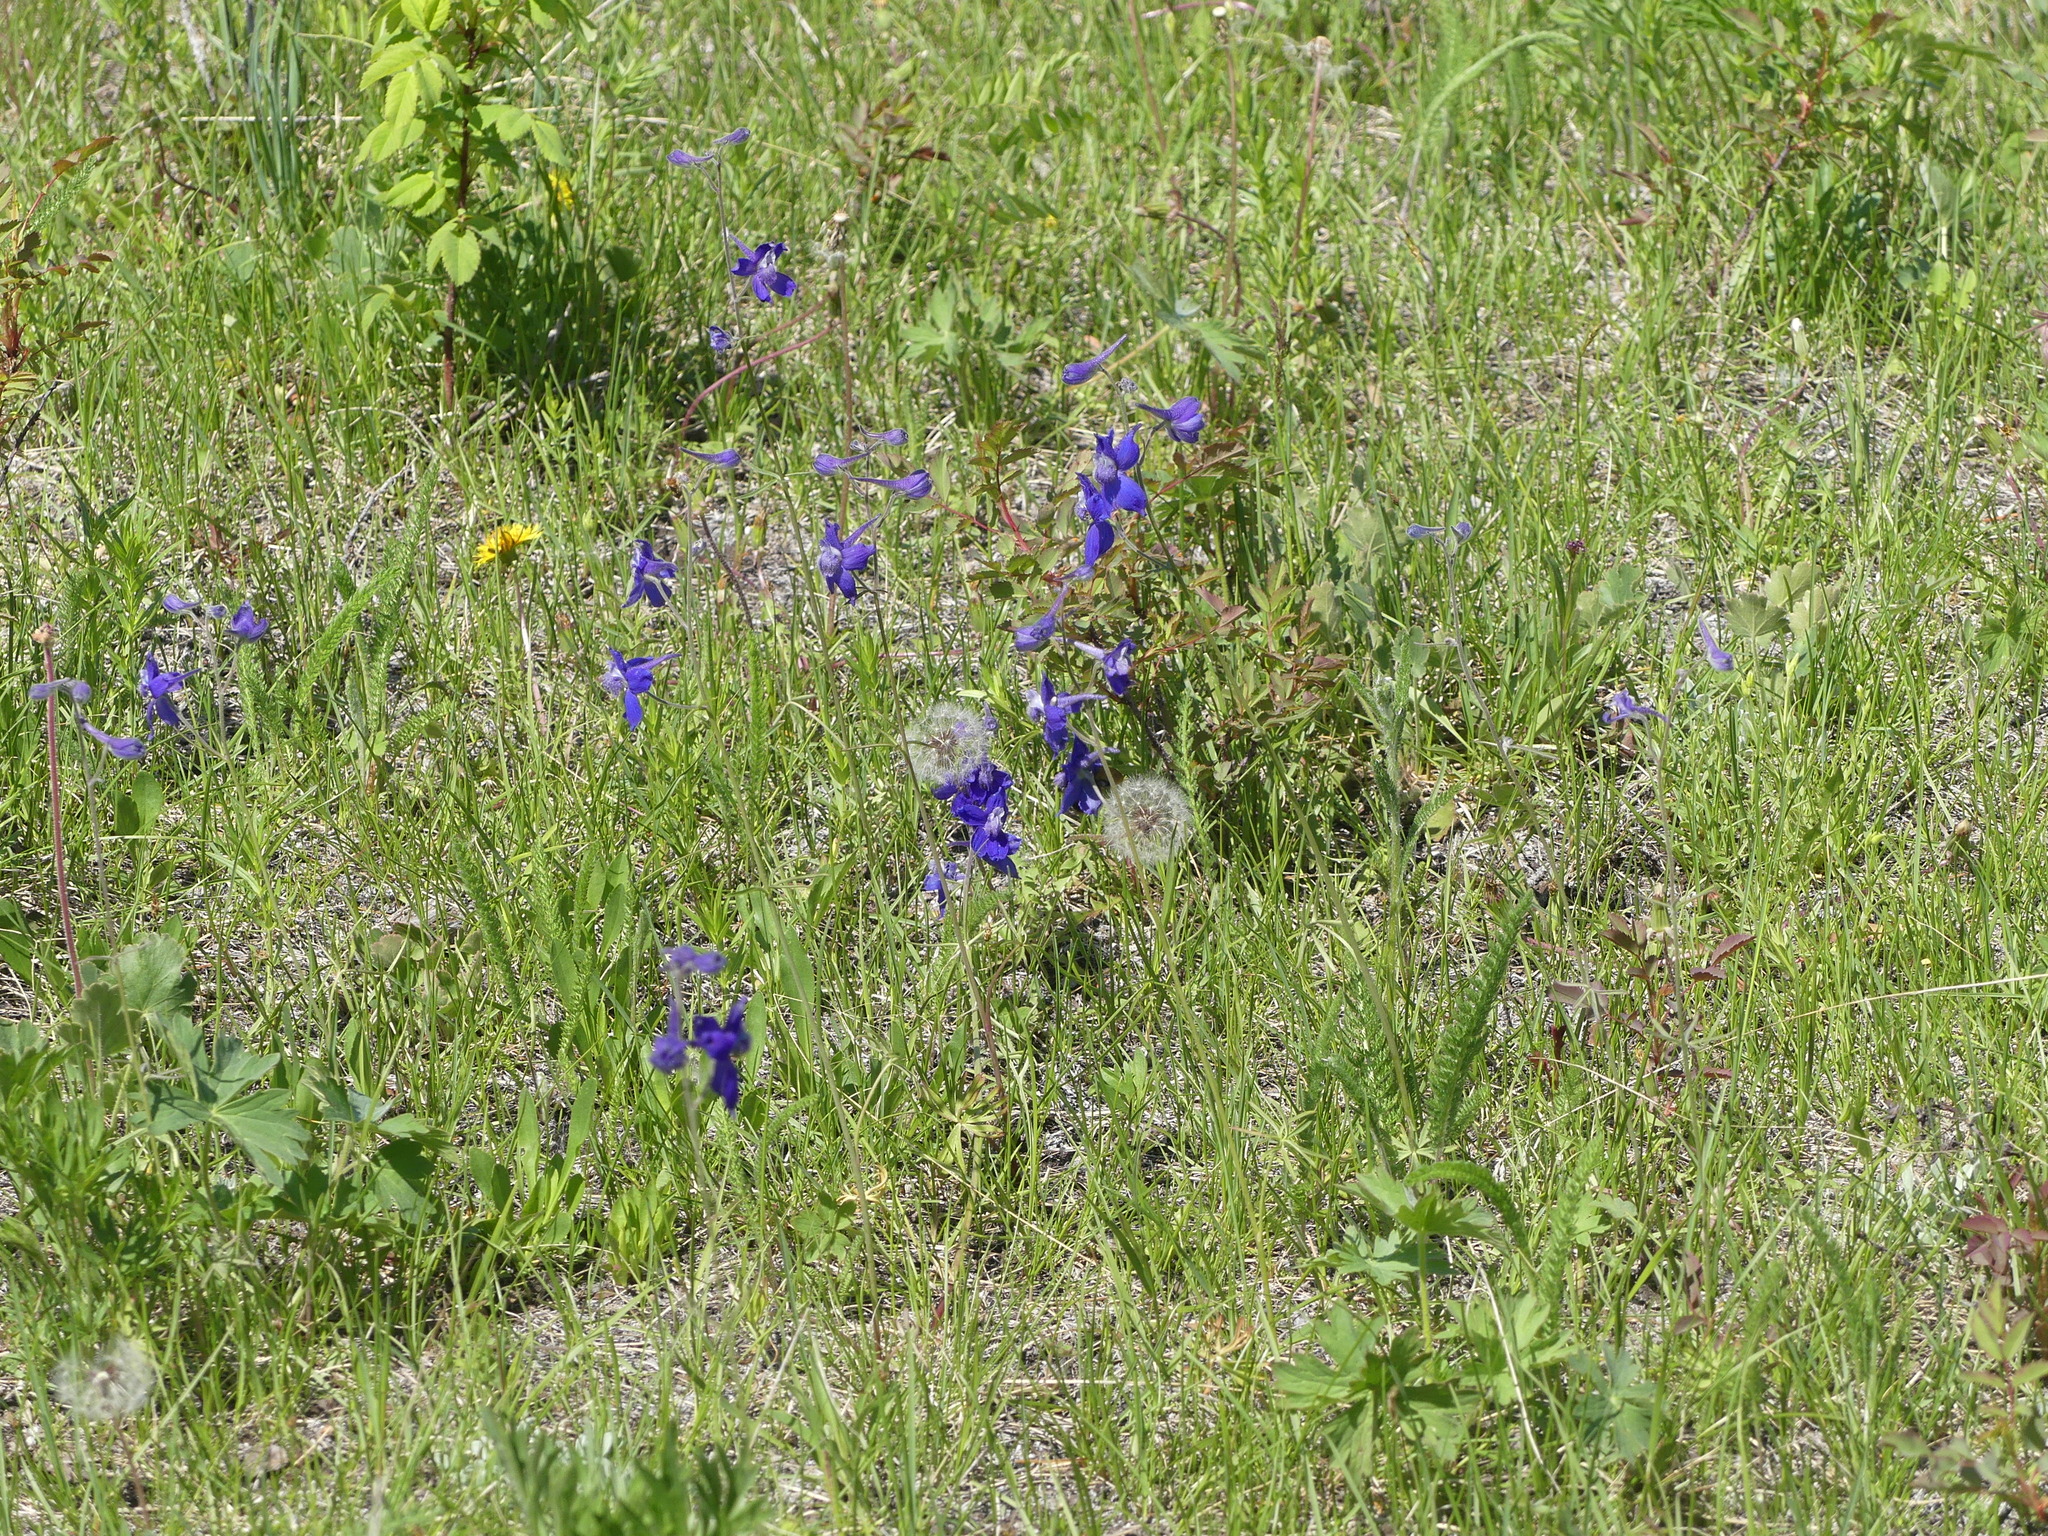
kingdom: Plantae
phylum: Tracheophyta
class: Magnoliopsida
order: Ranunculales
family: Ranunculaceae
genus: Delphinium
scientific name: Delphinium nuttallianum
